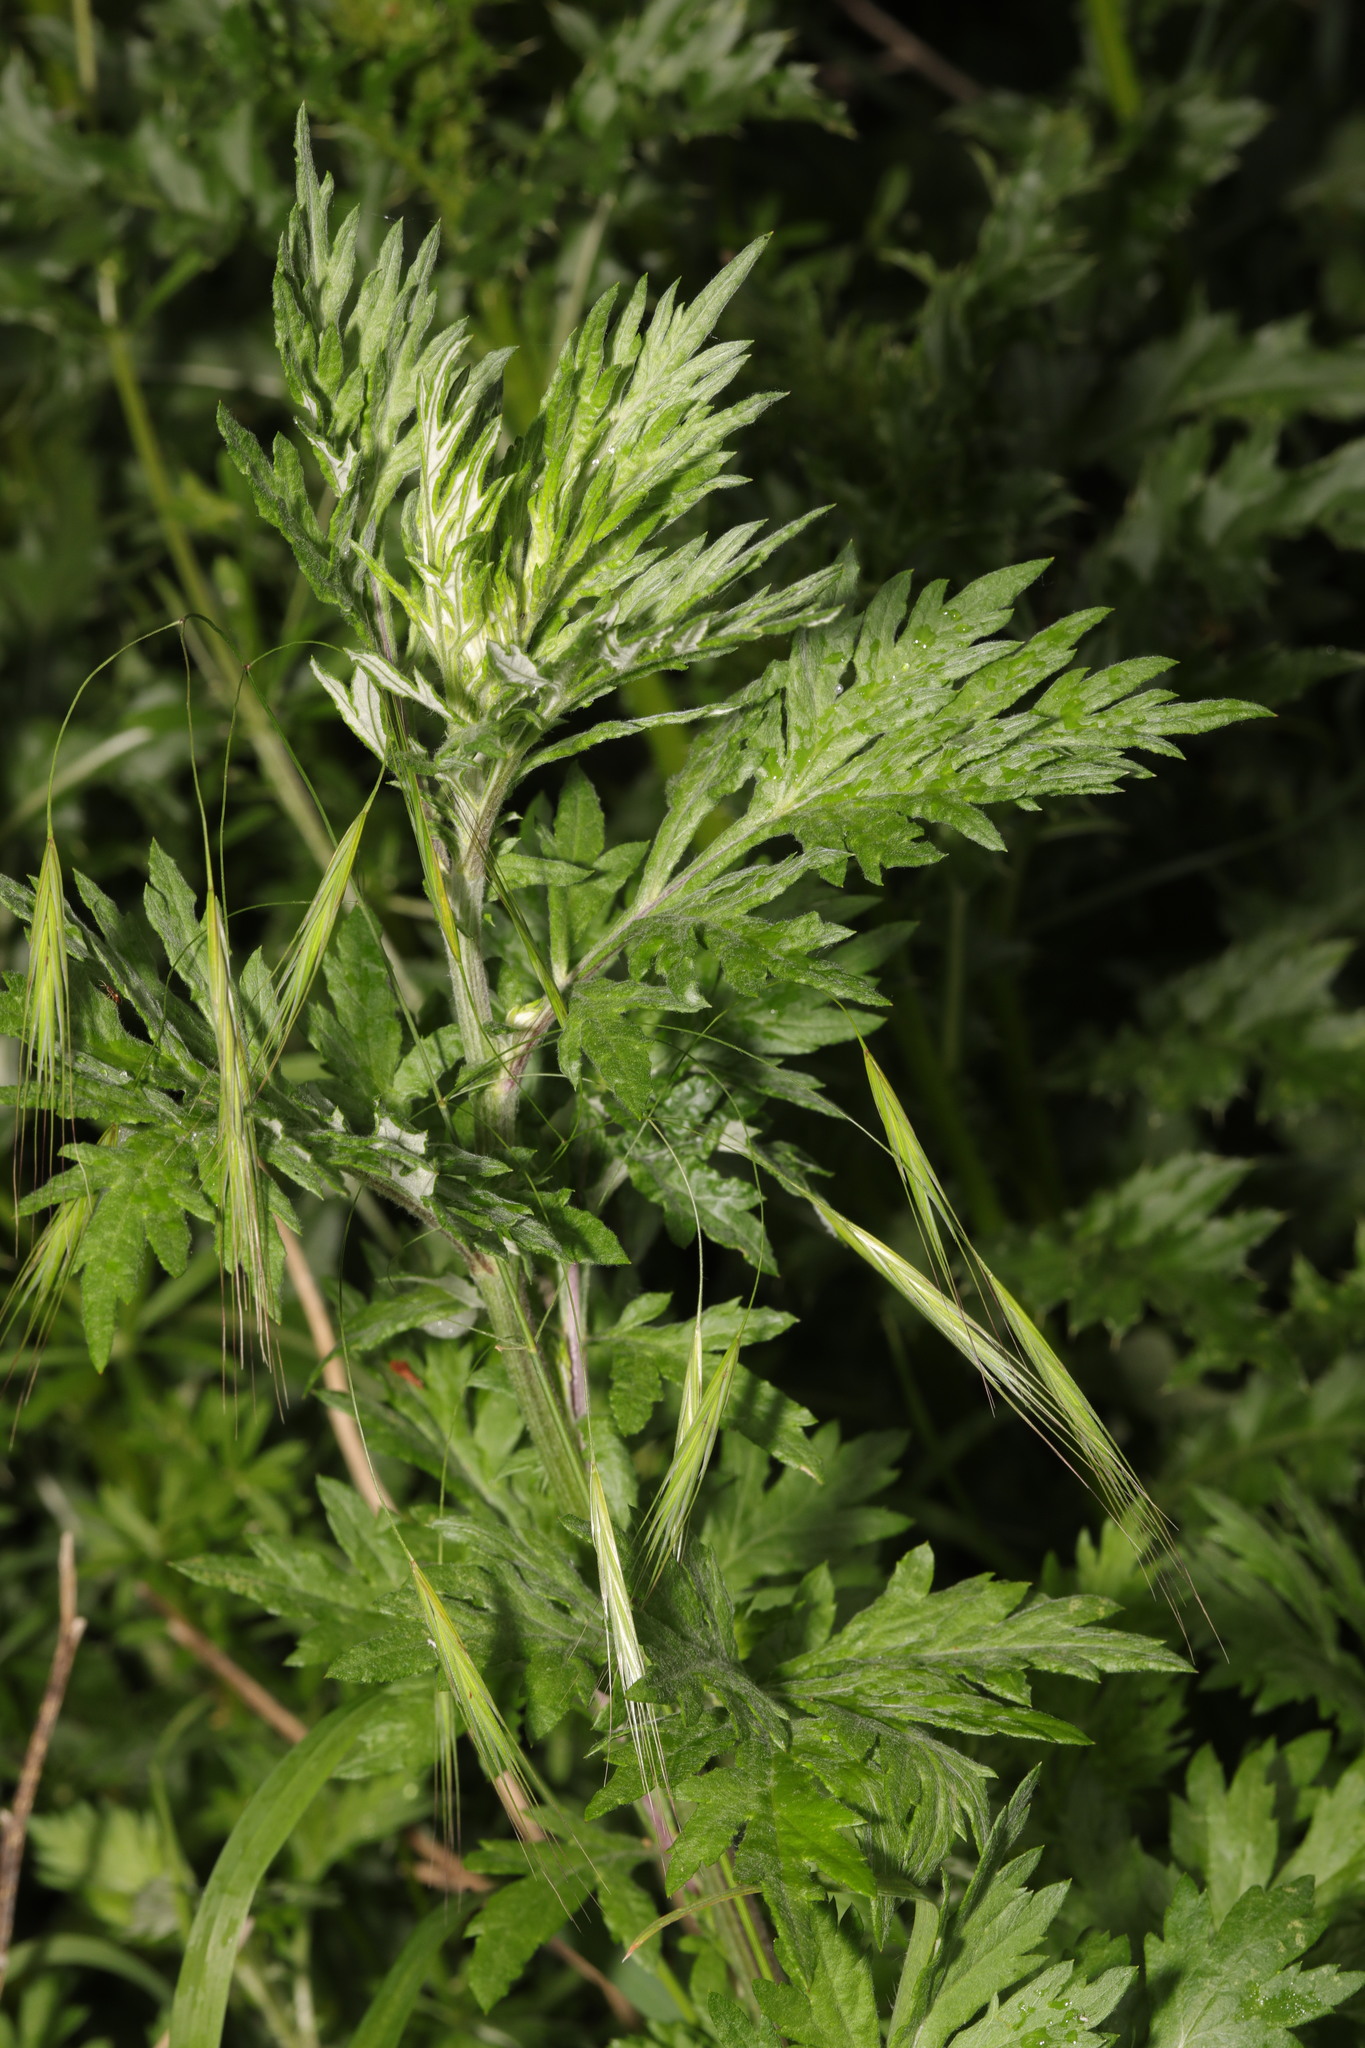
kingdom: Plantae
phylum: Tracheophyta
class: Magnoliopsida
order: Asterales
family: Asteraceae
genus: Artemisia
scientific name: Artemisia vulgaris
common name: Mugwort
